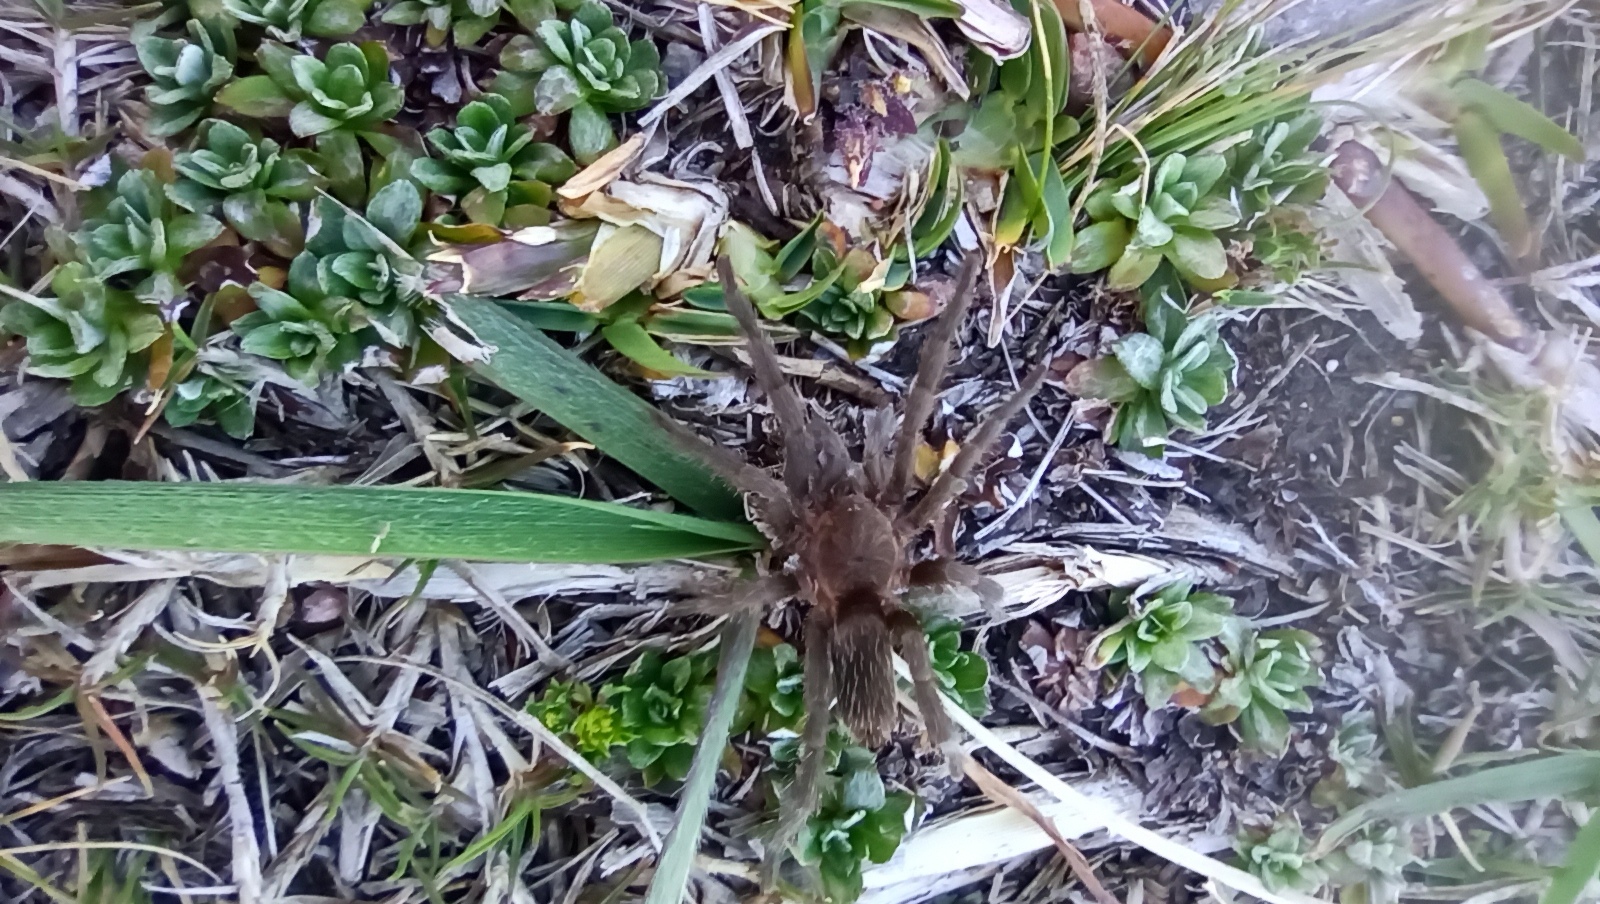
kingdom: Animalia
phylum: Arthropoda
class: Arachnida
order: Araneae
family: Theraphosidae
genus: Catumiri
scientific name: Catumiri parvum
